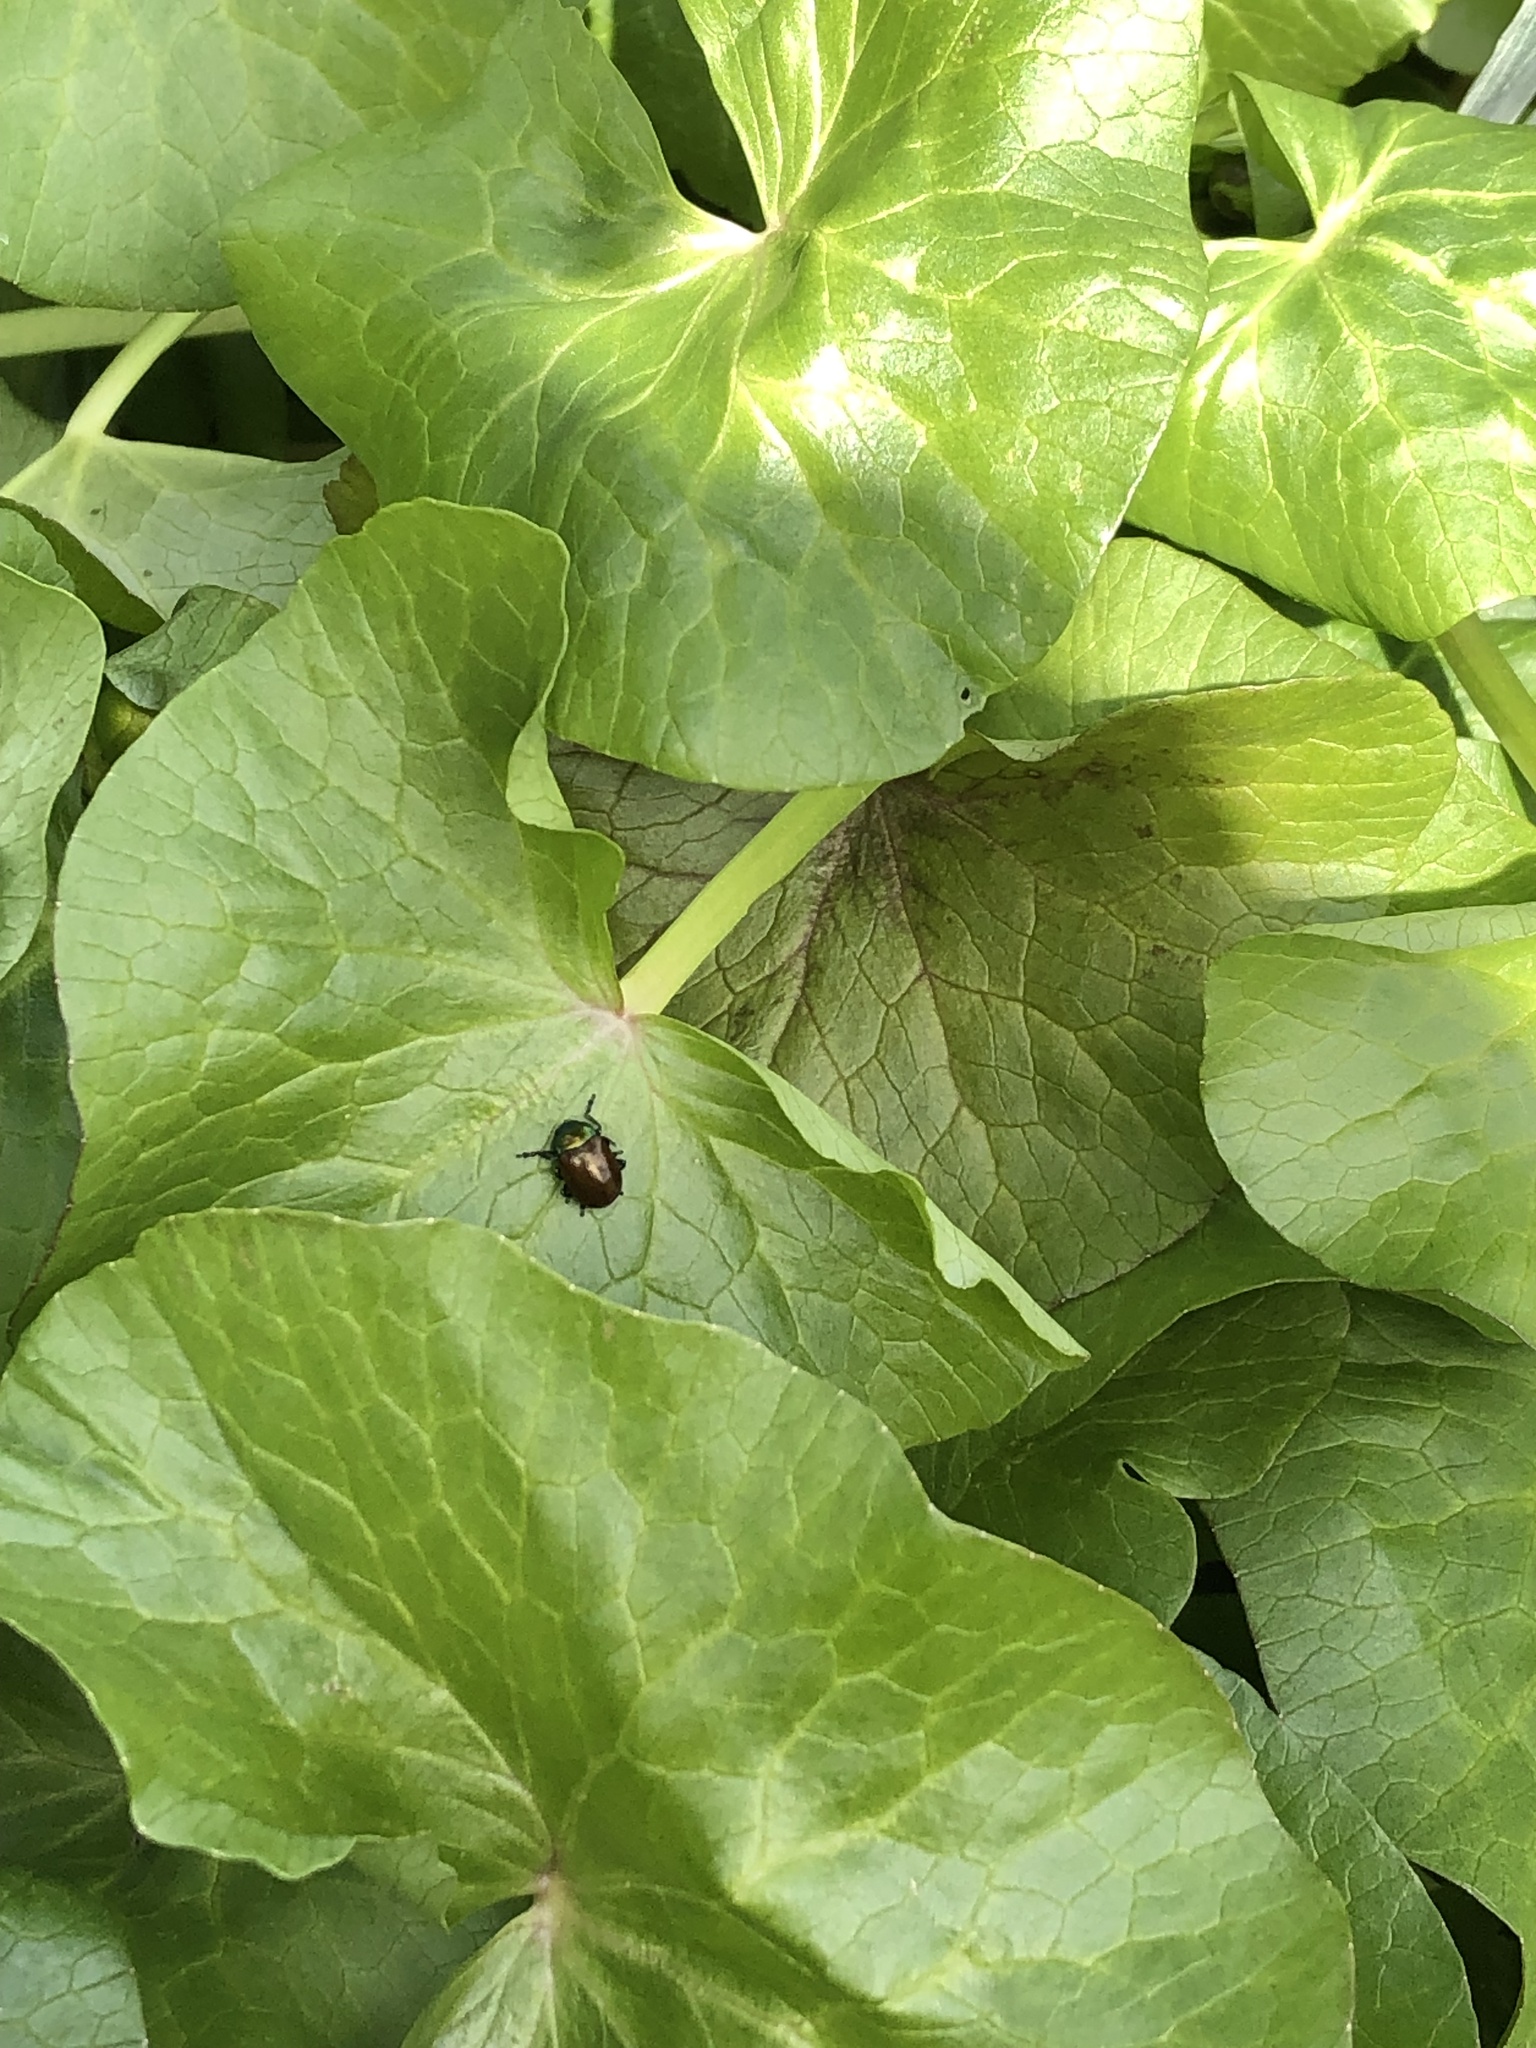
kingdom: Animalia
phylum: Arthropoda
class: Insecta
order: Coleoptera
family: Chrysomelidae
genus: Chrysomela
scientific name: Chrysomela polita
